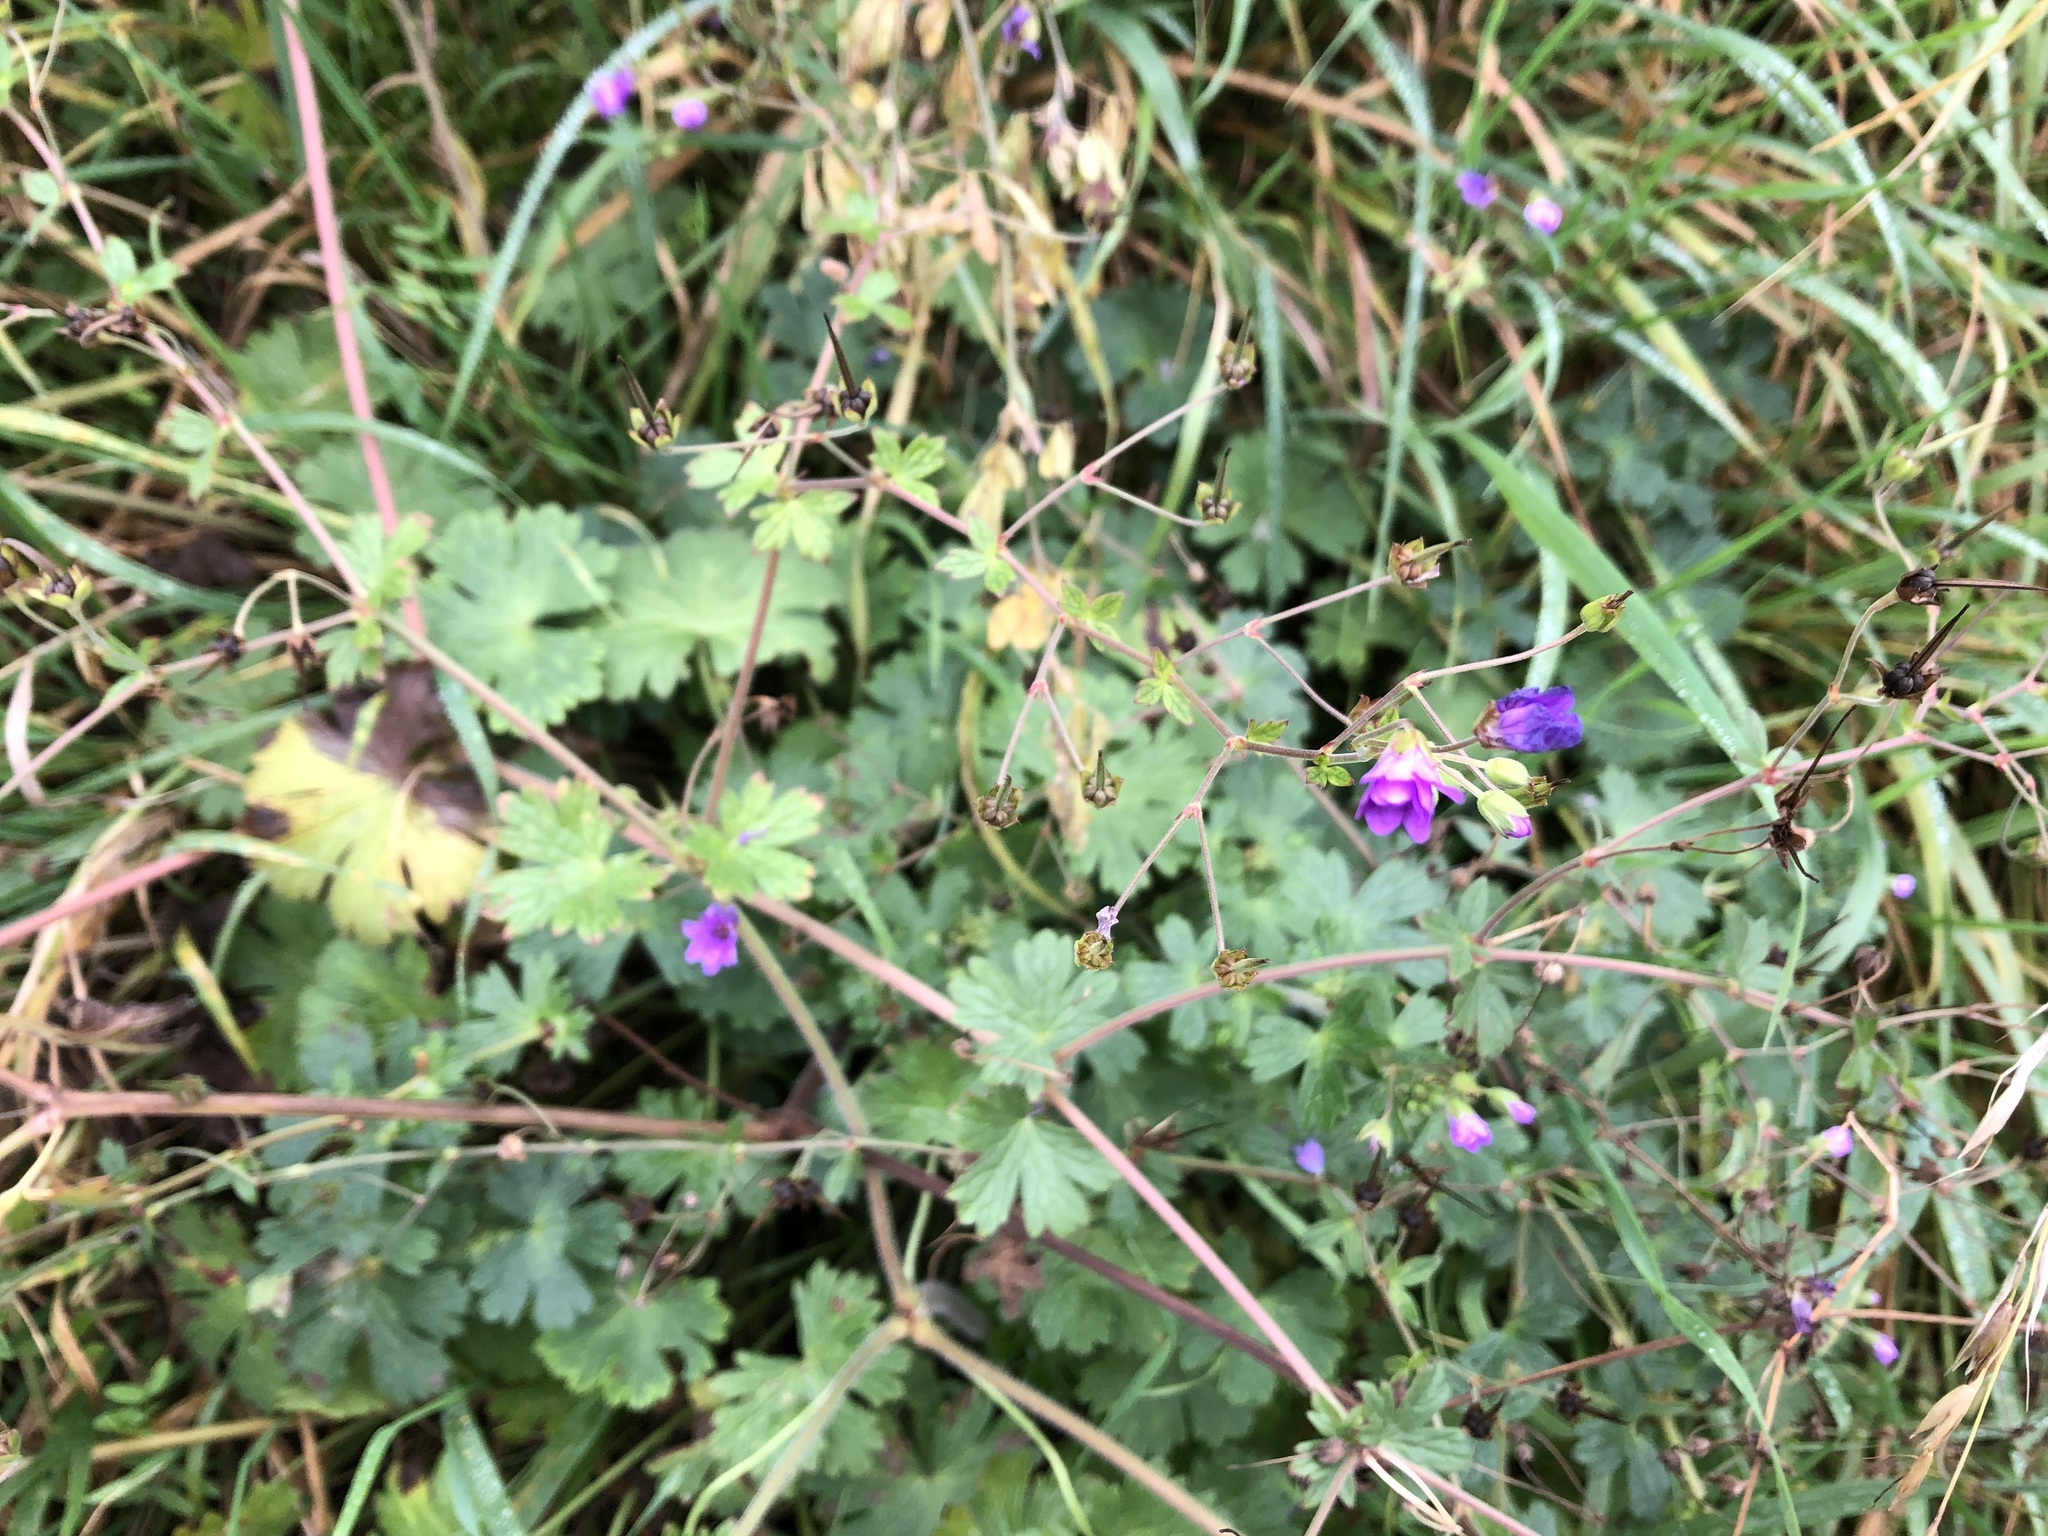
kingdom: Plantae
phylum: Tracheophyta
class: Magnoliopsida
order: Geraniales
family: Geraniaceae
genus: Geranium
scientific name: Geranium pyrenaicum
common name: Hedgerow crane's-bill
